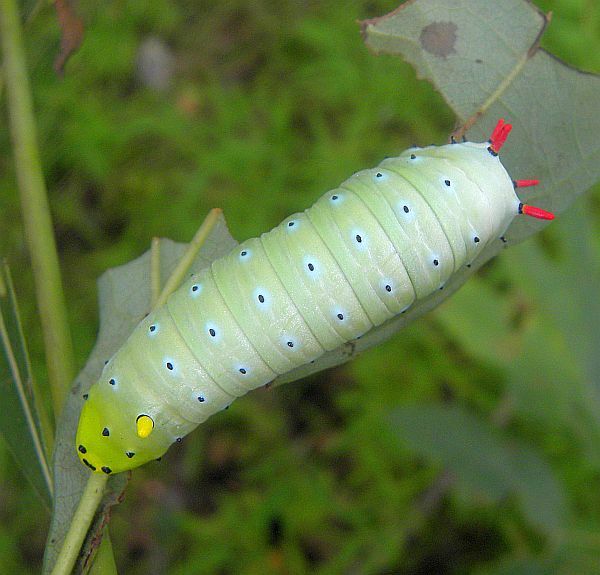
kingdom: Animalia
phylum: Arthropoda
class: Insecta
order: Lepidoptera
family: Saturniidae
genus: Callosamia
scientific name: Callosamia promethea
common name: Promethea silkmoth
